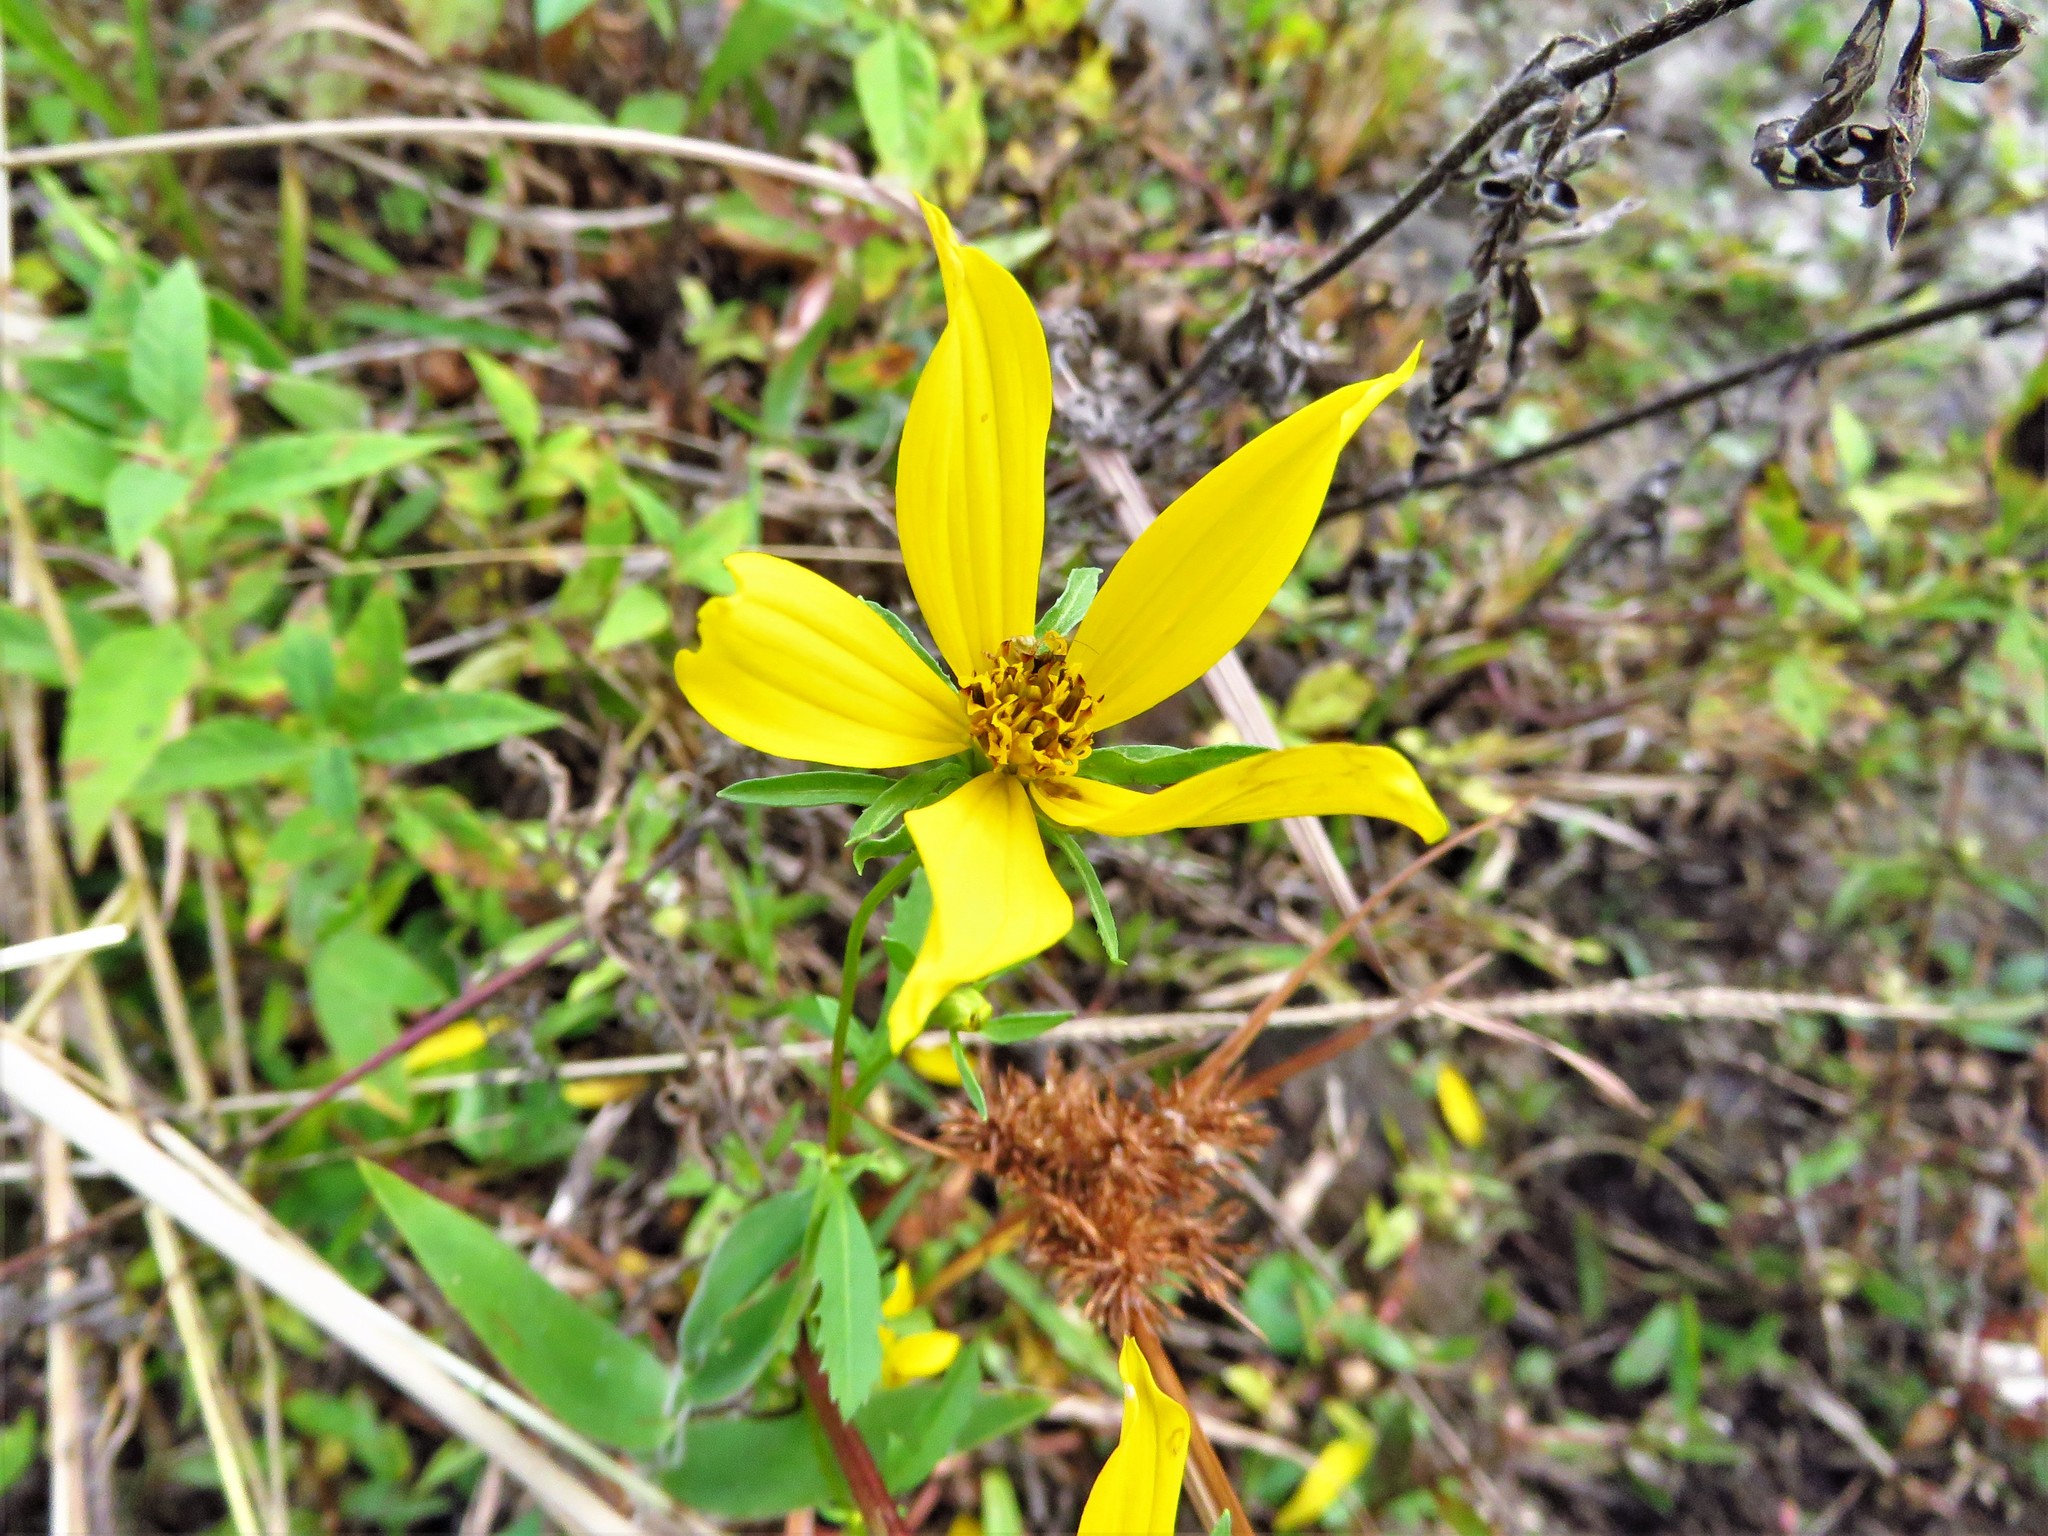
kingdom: Plantae
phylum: Tracheophyta
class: Magnoliopsida
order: Asterales
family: Asteraceae
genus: Bidens
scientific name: Bidens aristosa
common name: Western tickseed
